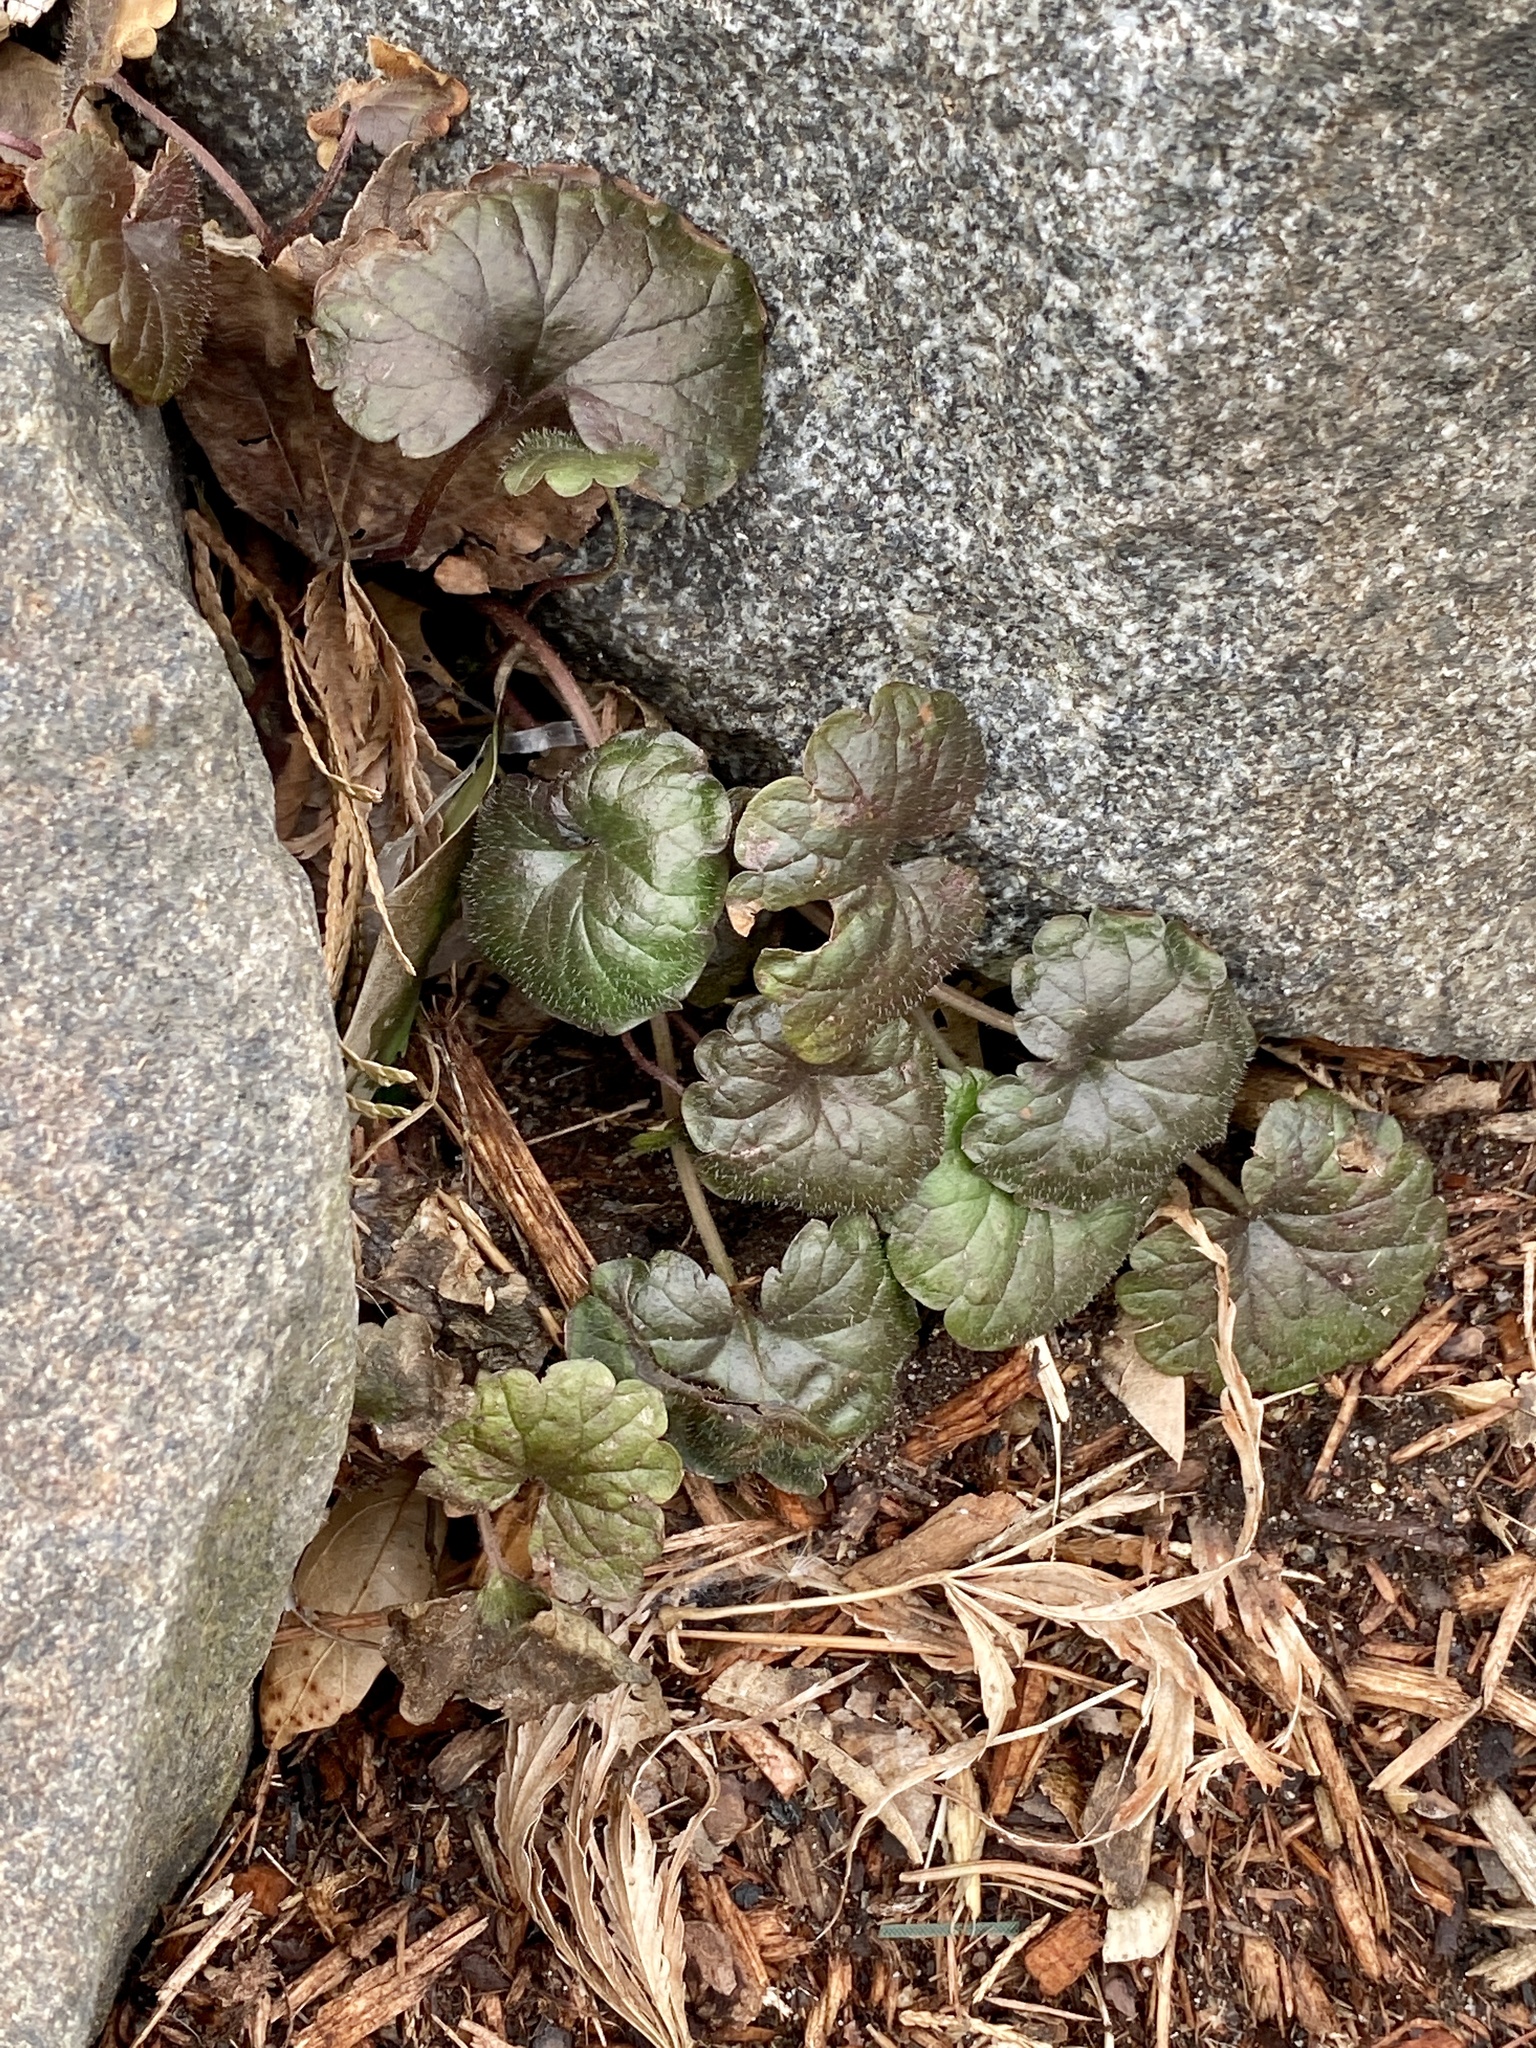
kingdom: Plantae
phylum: Tracheophyta
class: Magnoliopsida
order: Lamiales
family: Lamiaceae
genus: Glechoma
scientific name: Glechoma hederacea
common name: Ground ivy
